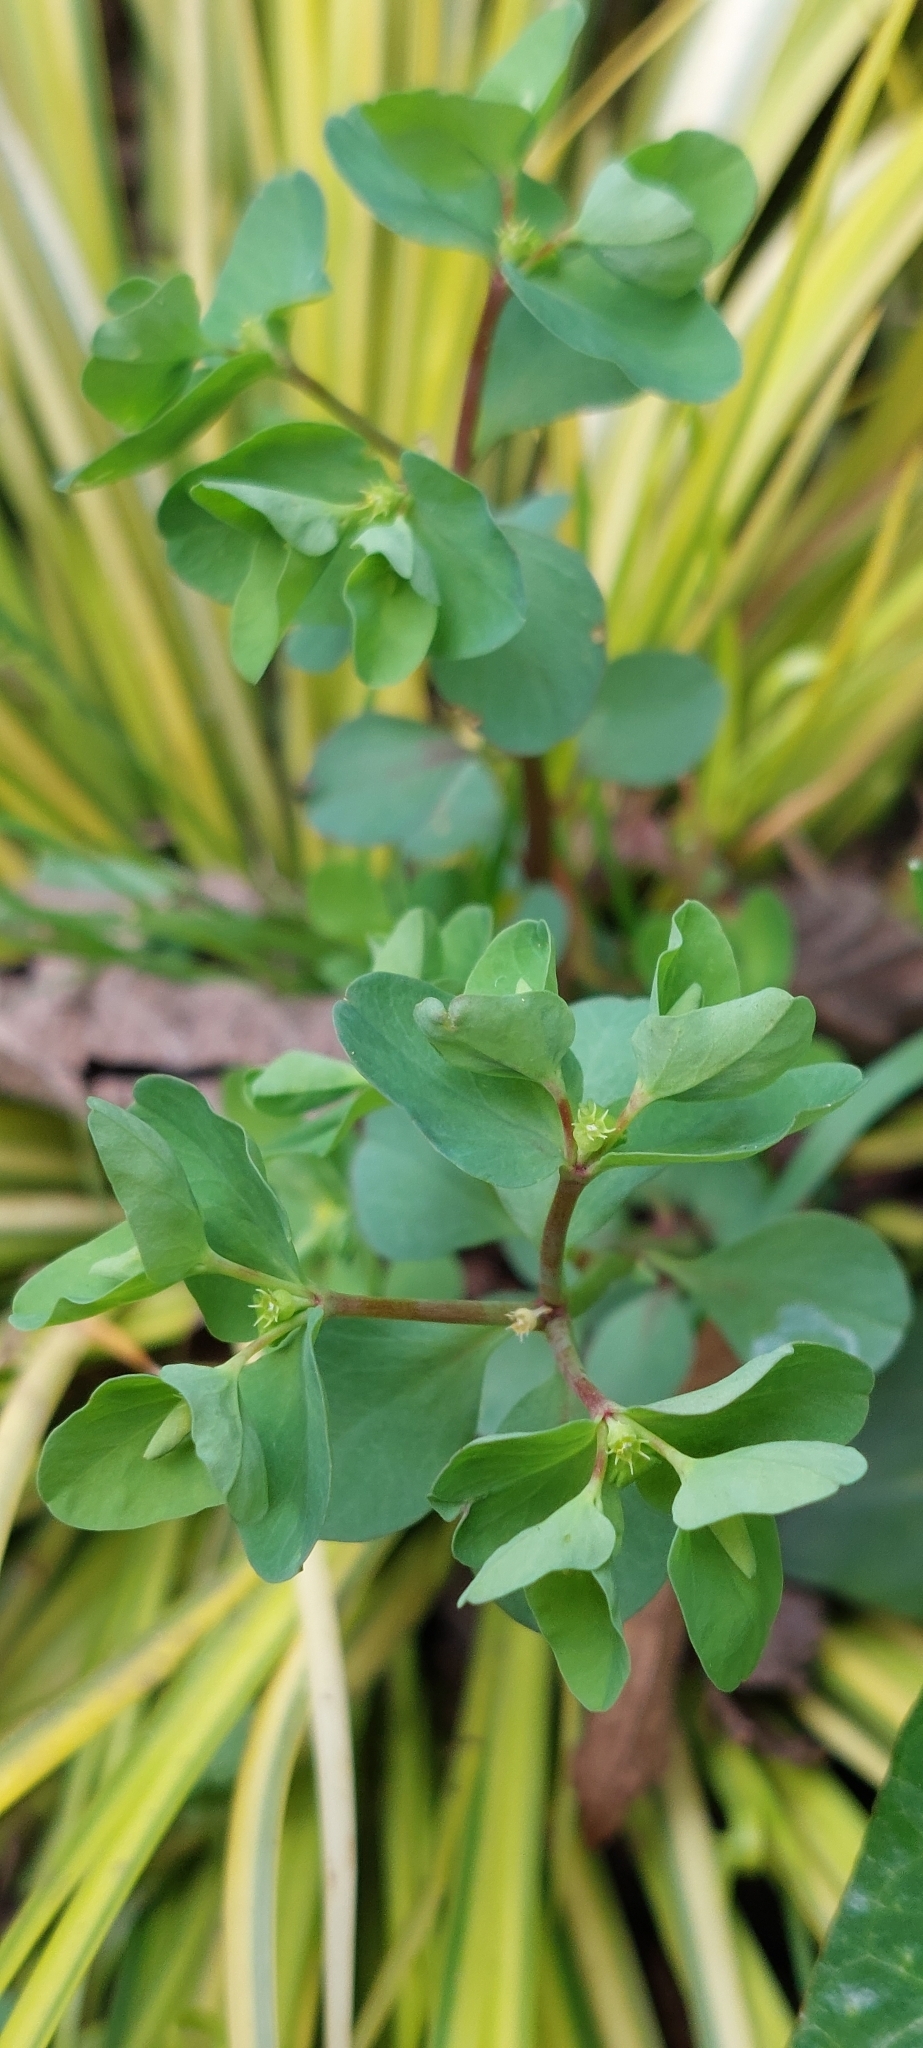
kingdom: Plantae
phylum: Tracheophyta
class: Magnoliopsida
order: Malpighiales
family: Euphorbiaceae
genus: Euphorbia
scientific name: Euphorbia peplus
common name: Petty spurge
